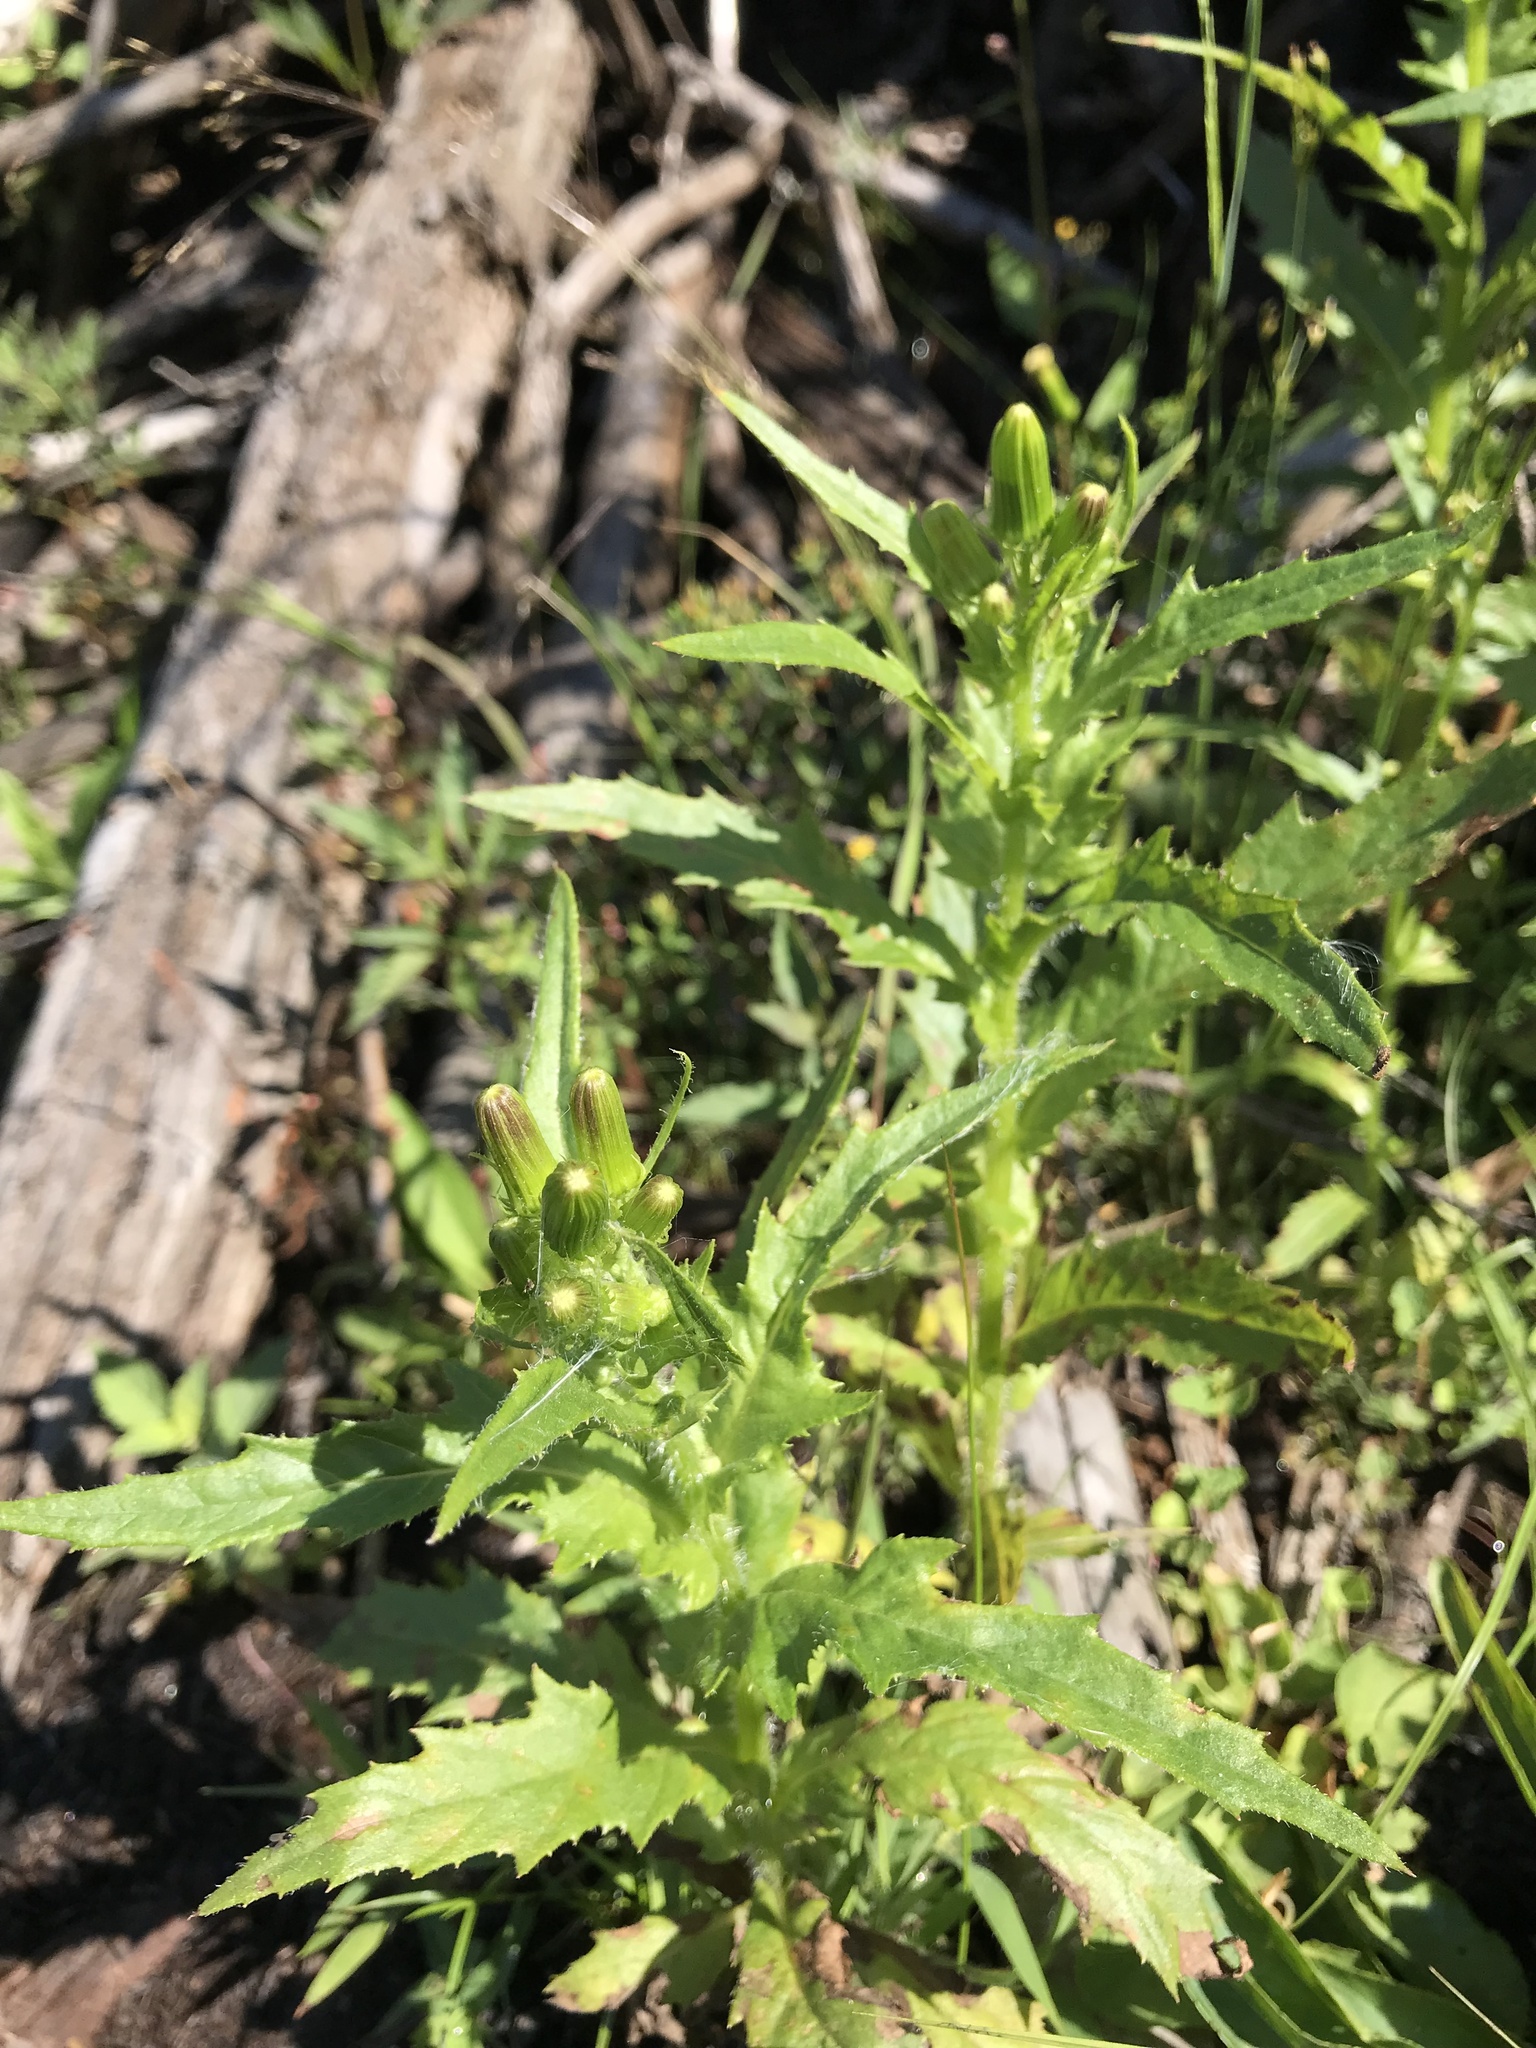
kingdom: Plantae
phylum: Tracheophyta
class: Magnoliopsida
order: Asterales
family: Asteraceae
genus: Erechtites
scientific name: Erechtites hieraciifolius
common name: American burnweed
